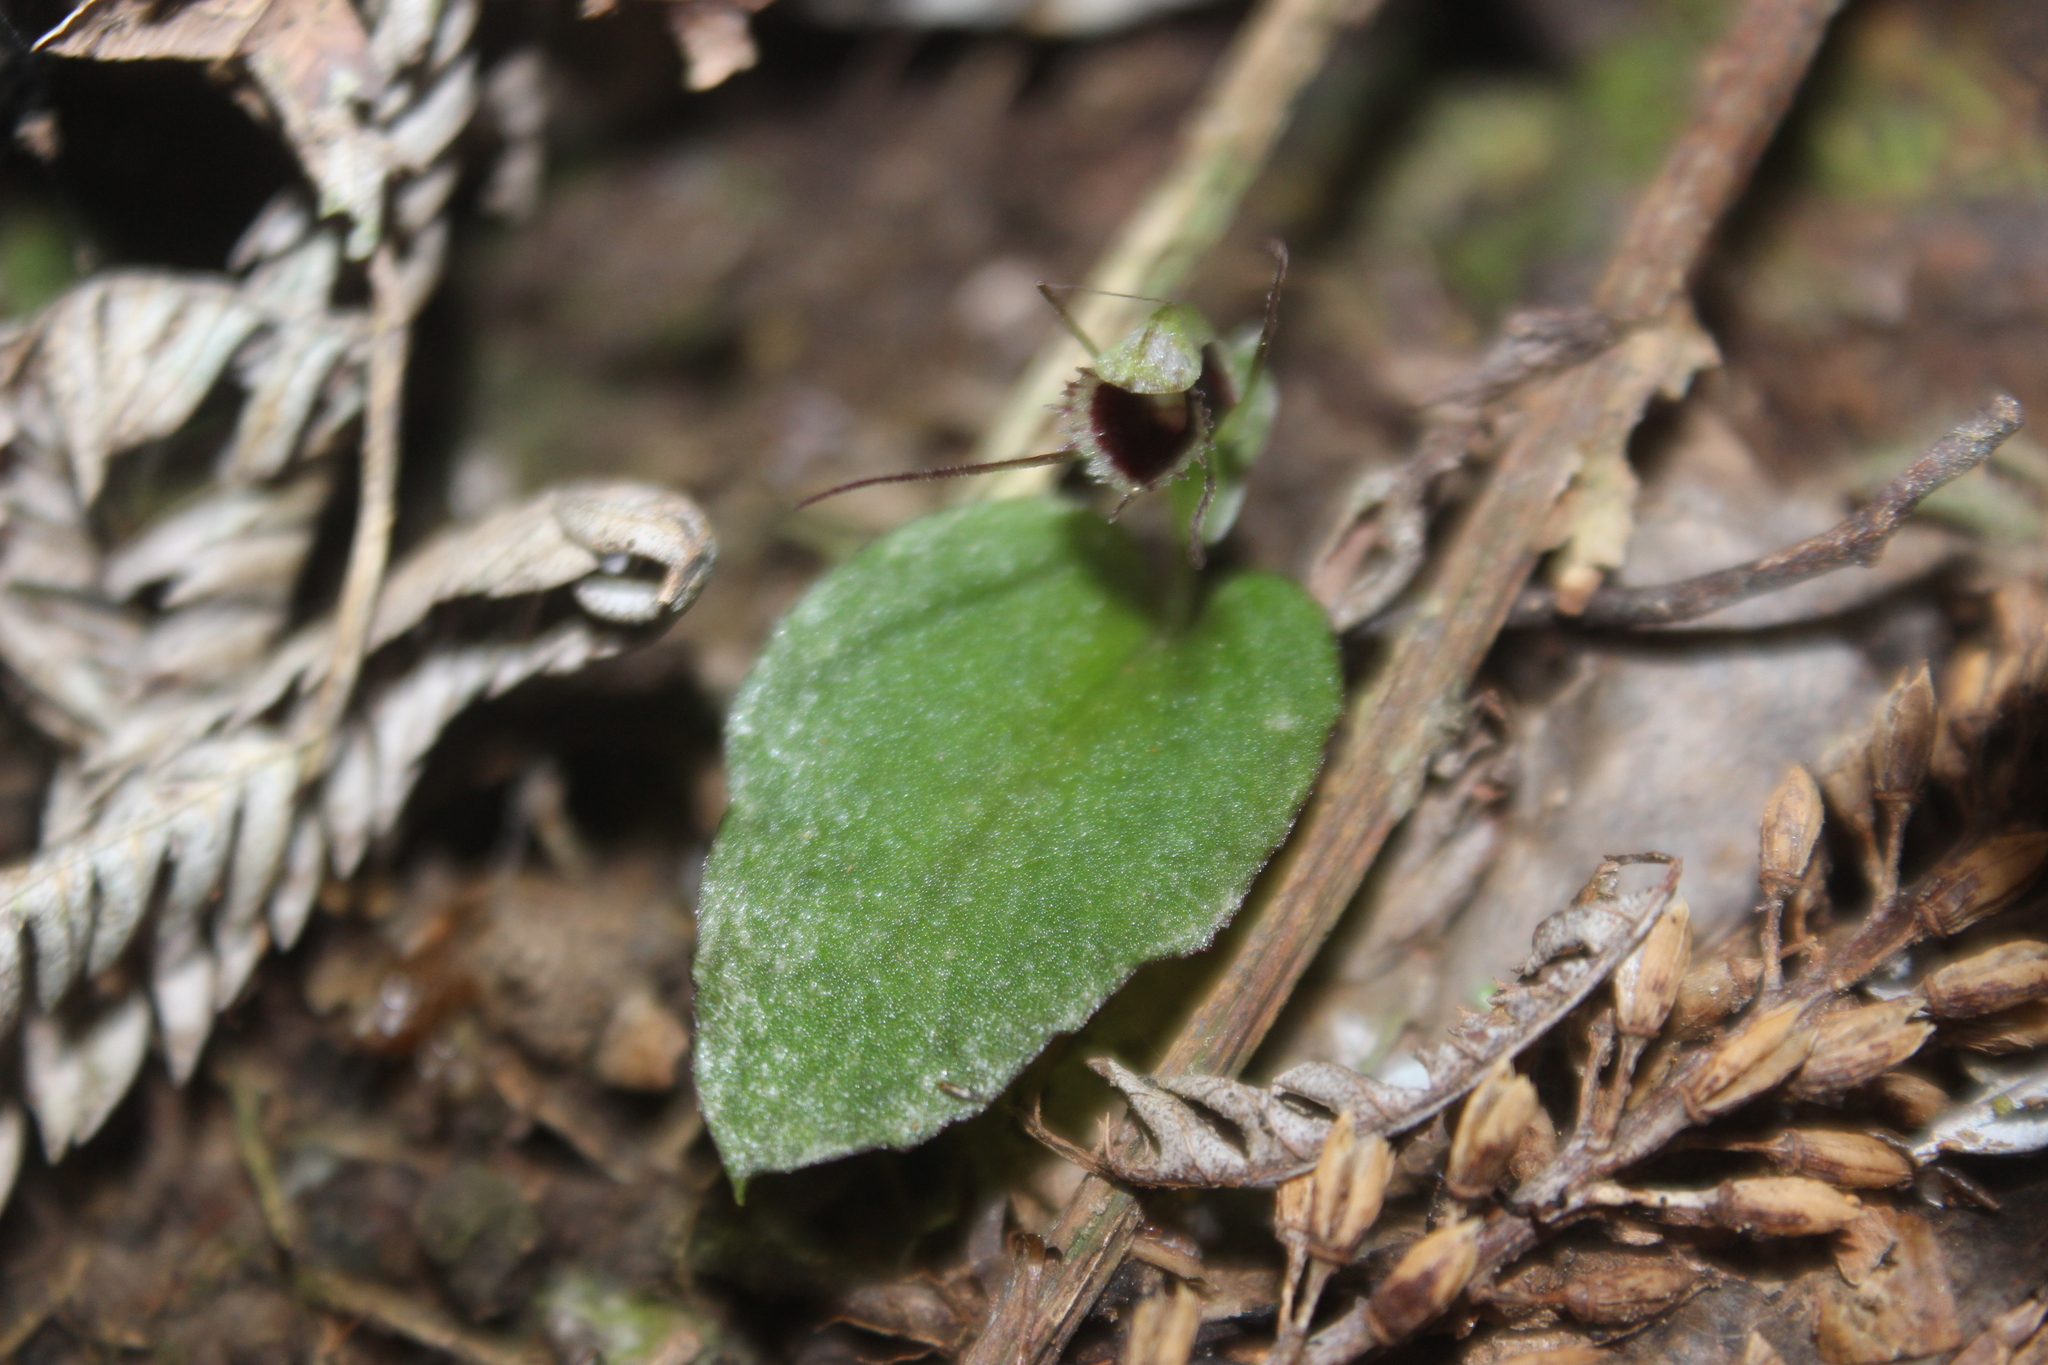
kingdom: Plantae
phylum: Tracheophyta
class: Liliopsida
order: Asparagales
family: Orchidaceae
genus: Corybas
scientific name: Corybas oblongus
